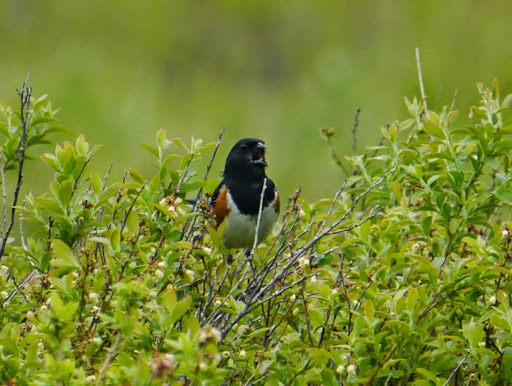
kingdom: Animalia
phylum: Chordata
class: Aves
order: Passeriformes
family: Passerellidae
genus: Pipilo
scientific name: Pipilo erythrophthalmus
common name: Eastern towhee
